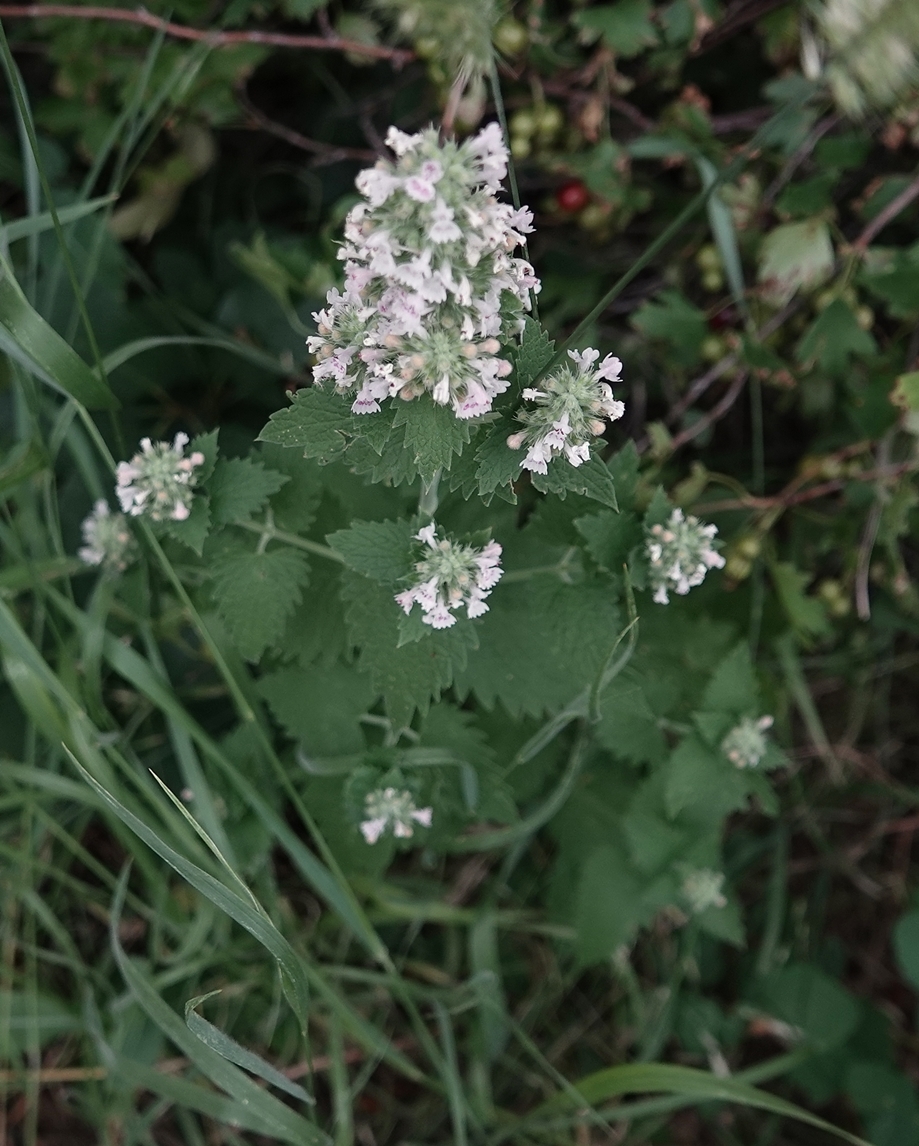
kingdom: Plantae
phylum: Tracheophyta
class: Magnoliopsida
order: Lamiales
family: Lamiaceae
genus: Nepeta
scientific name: Nepeta cataria
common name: Catnip
